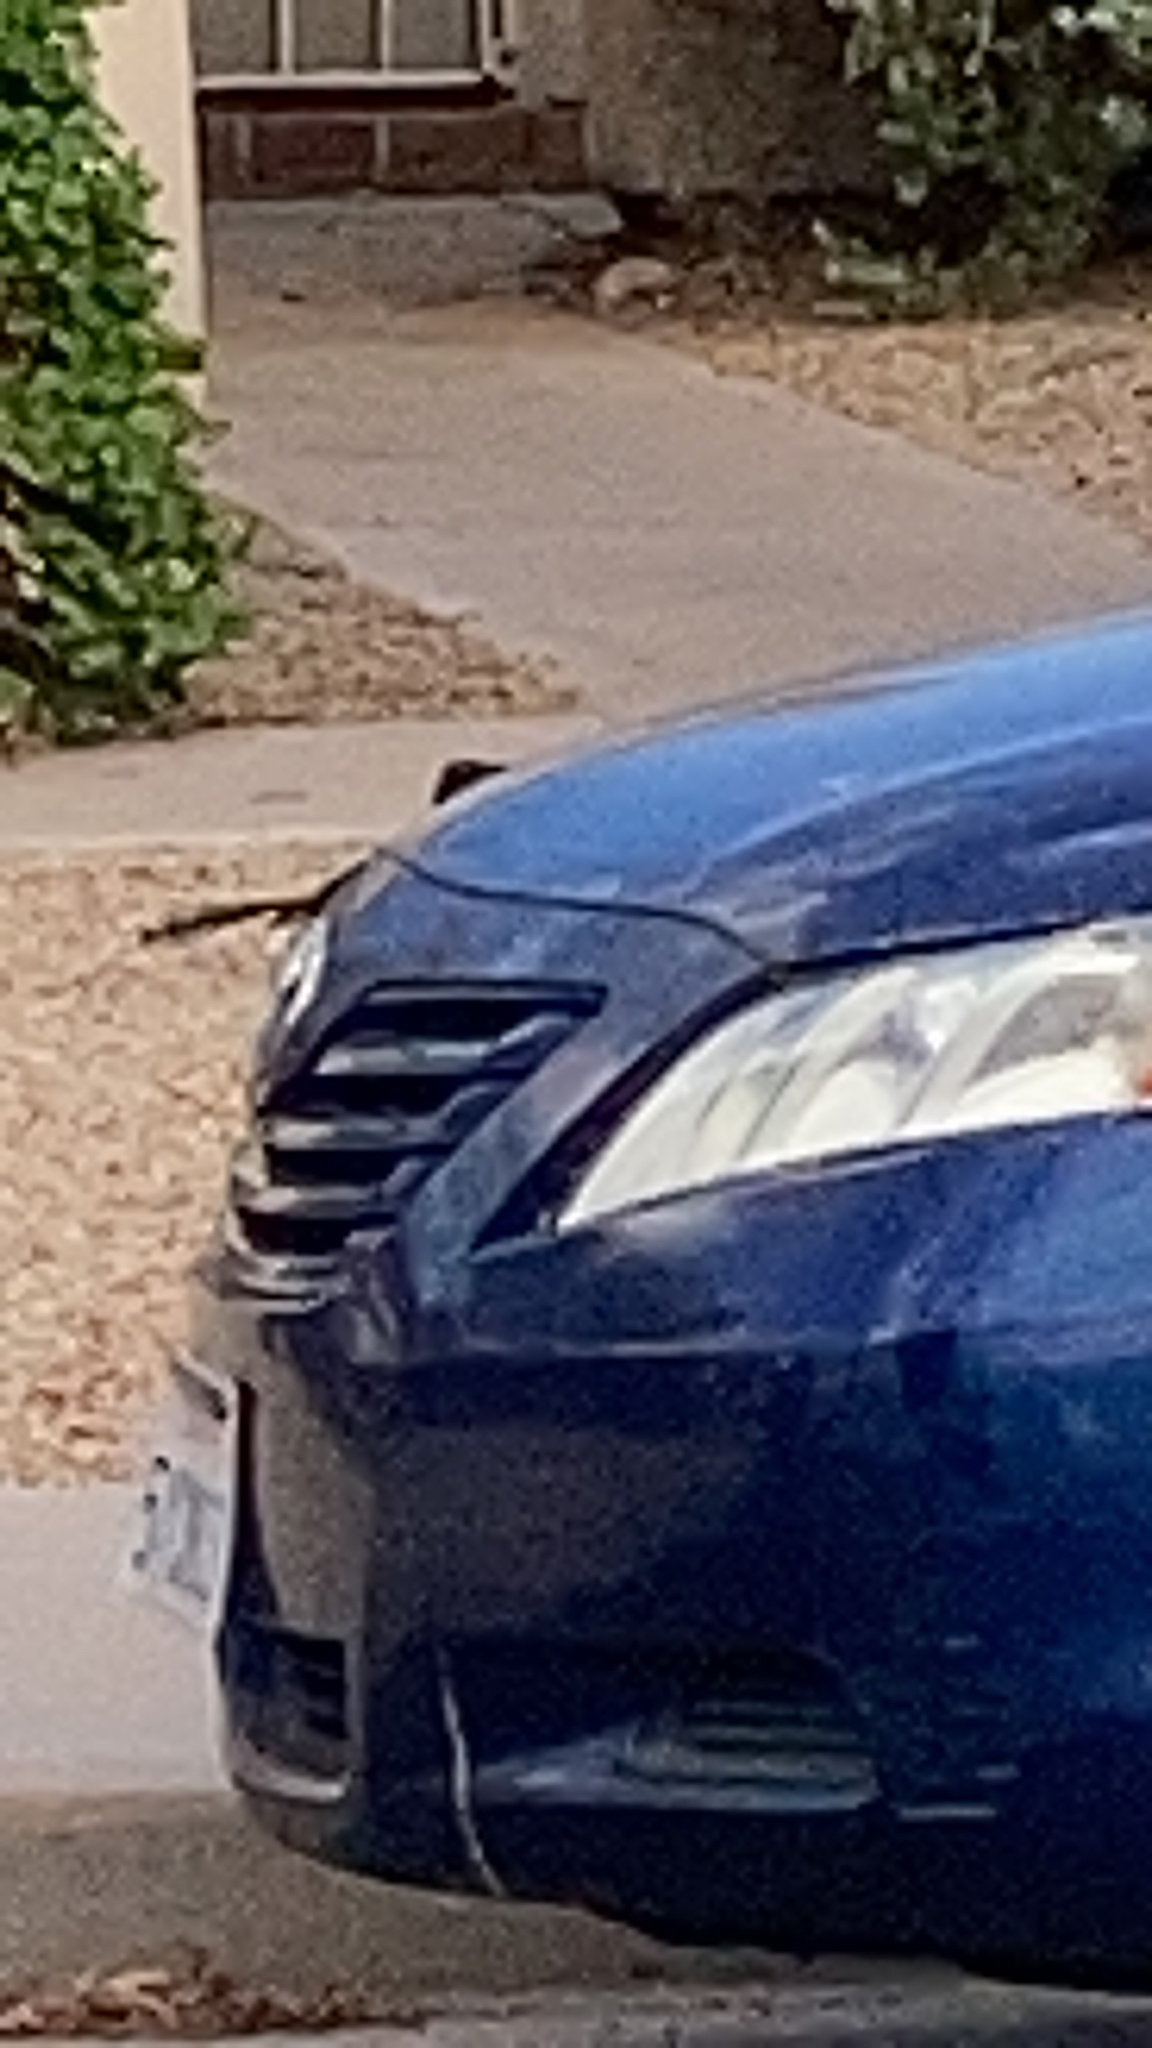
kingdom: Animalia
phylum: Chordata
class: Aves
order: Passeriformes
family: Icteridae
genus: Quiscalus
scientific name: Quiscalus mexicanus
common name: Great-tailed grackle
